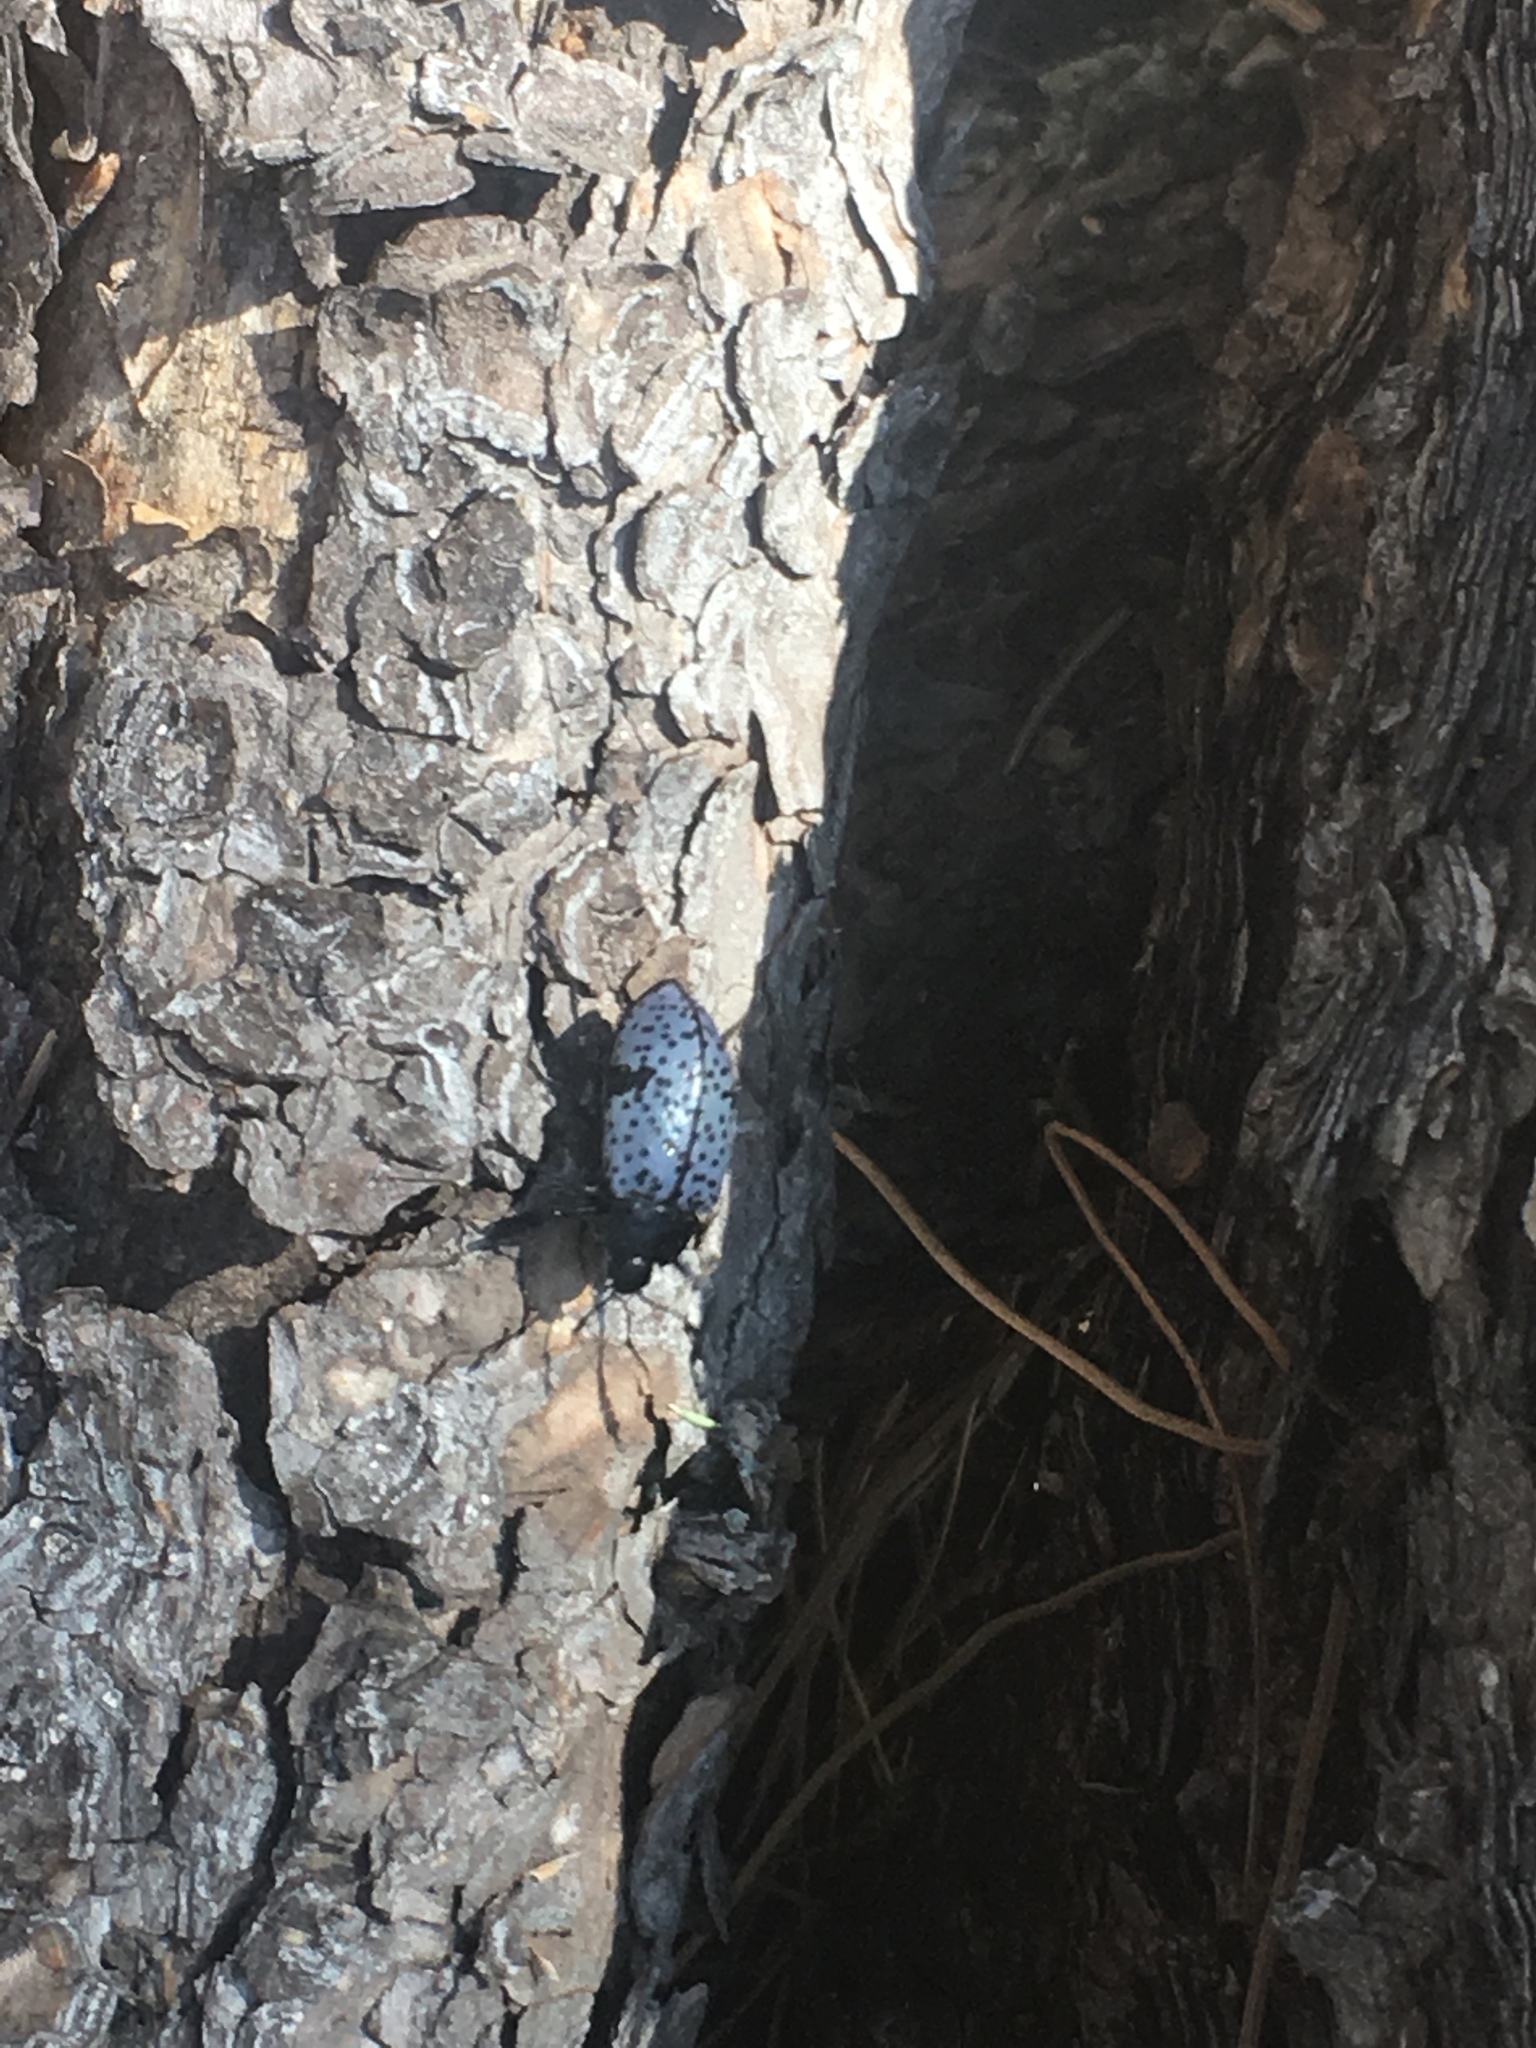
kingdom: Animalia
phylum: Arthropoda
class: Insecta
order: Coleoptera
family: Erotylidae
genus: Gibbifer
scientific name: Gibbifer californicus
